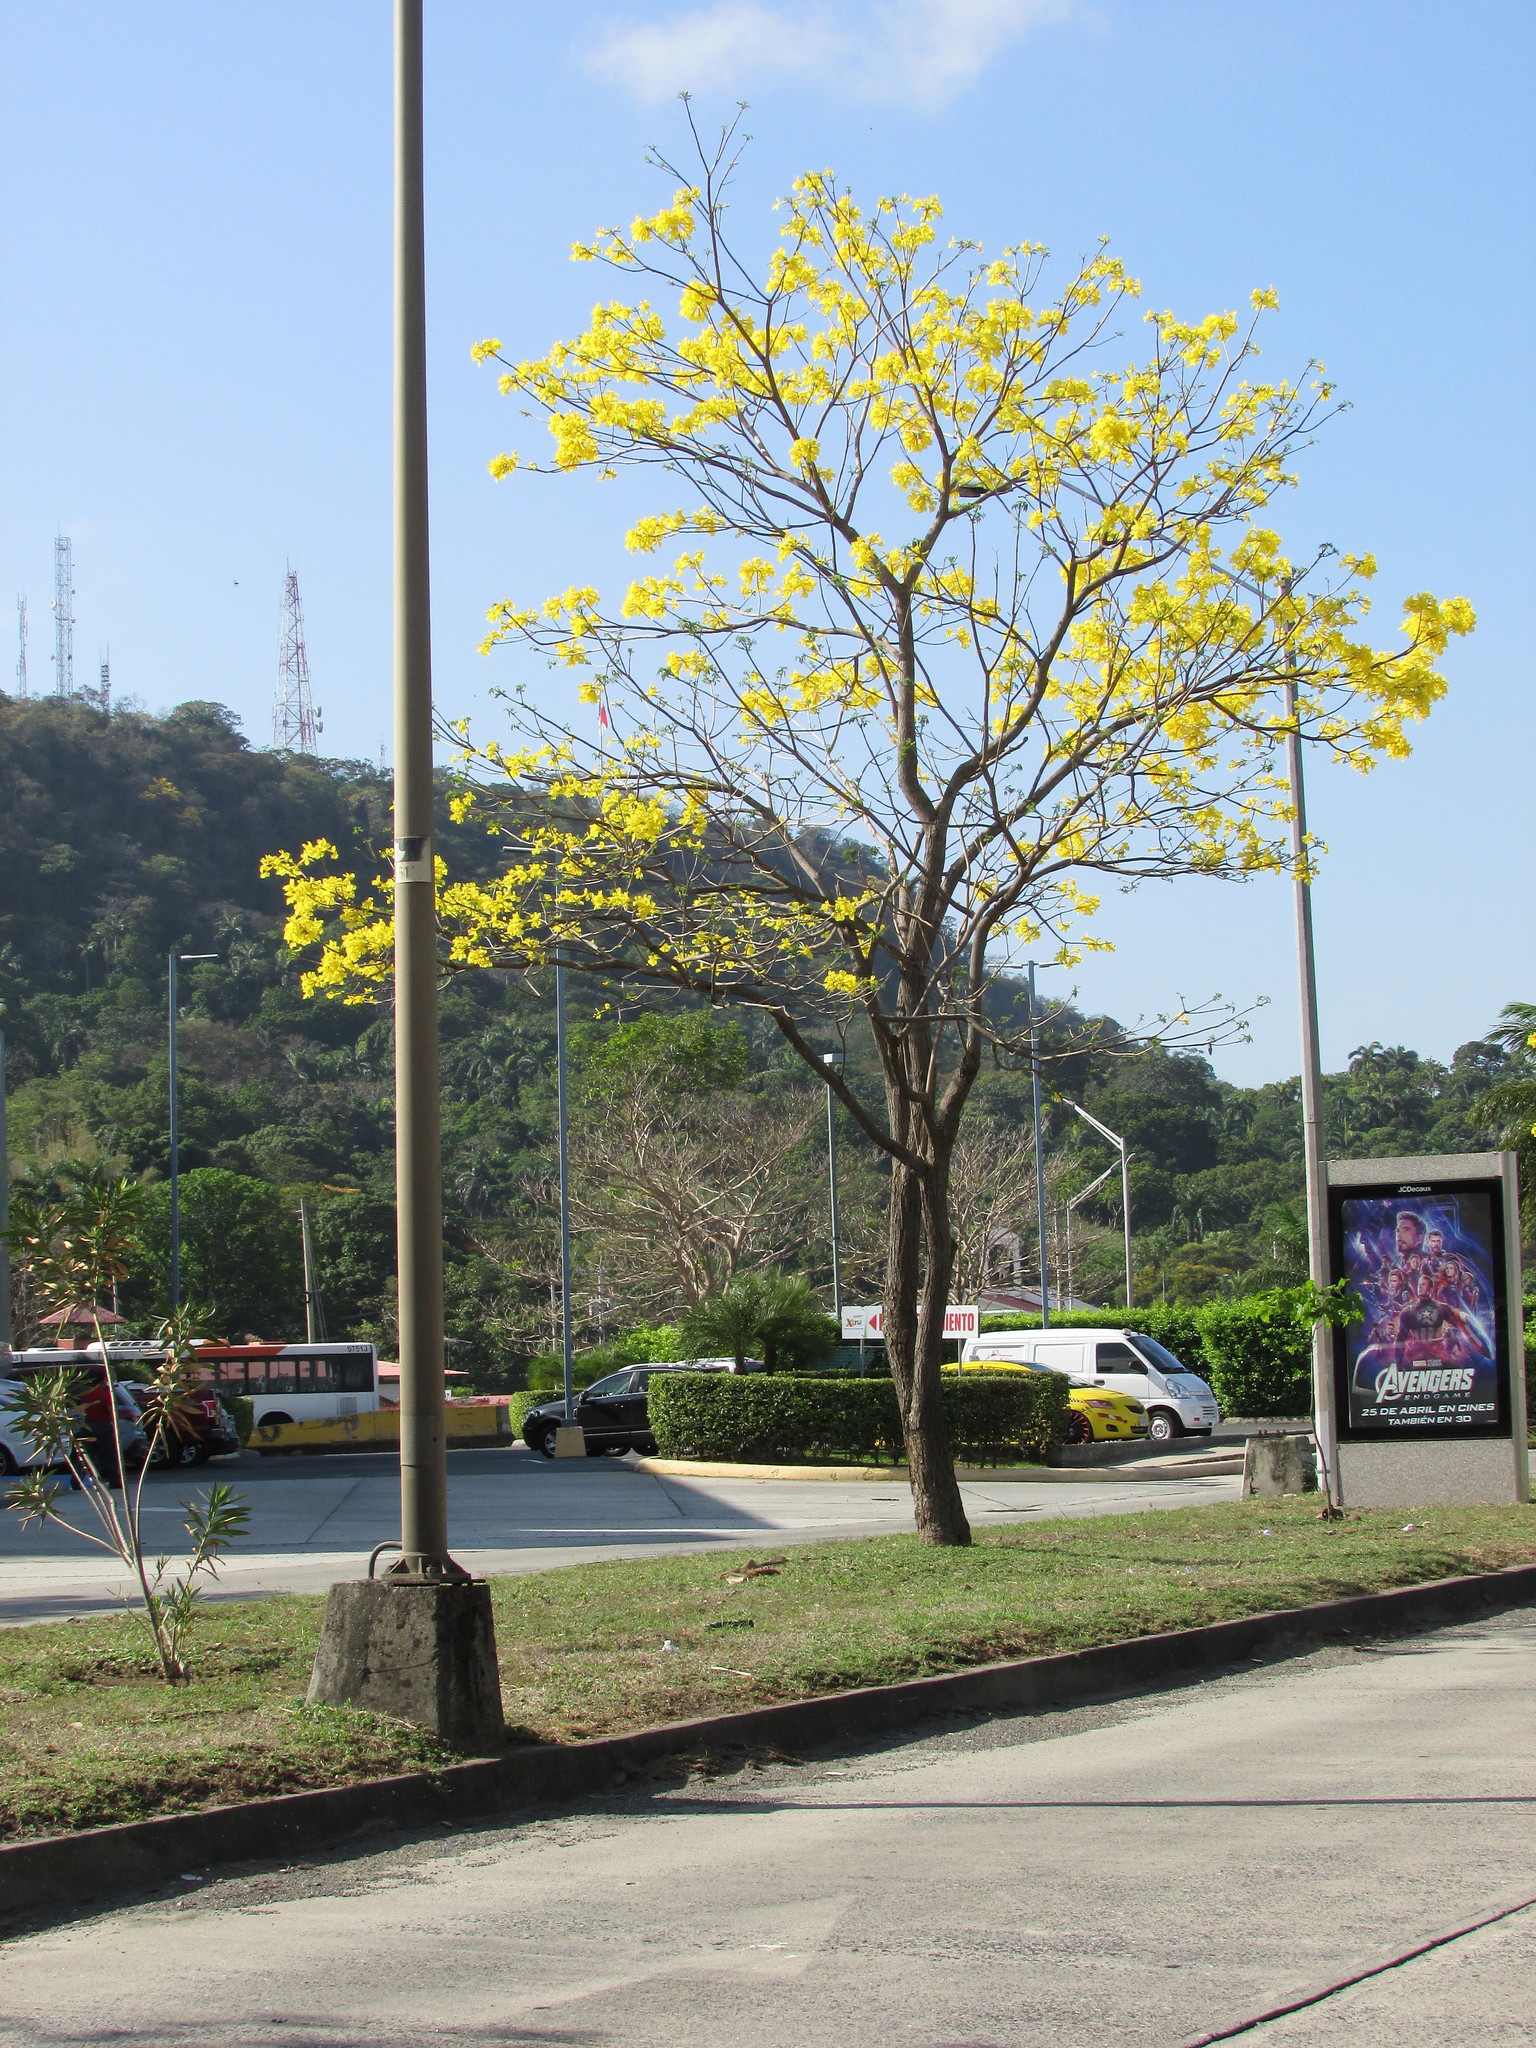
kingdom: Plantae
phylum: Tracheophyta
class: Magnoliopsida
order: Lamiales
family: Bignoniaceae
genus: Handroanthus
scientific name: Handroanthus guayacan
